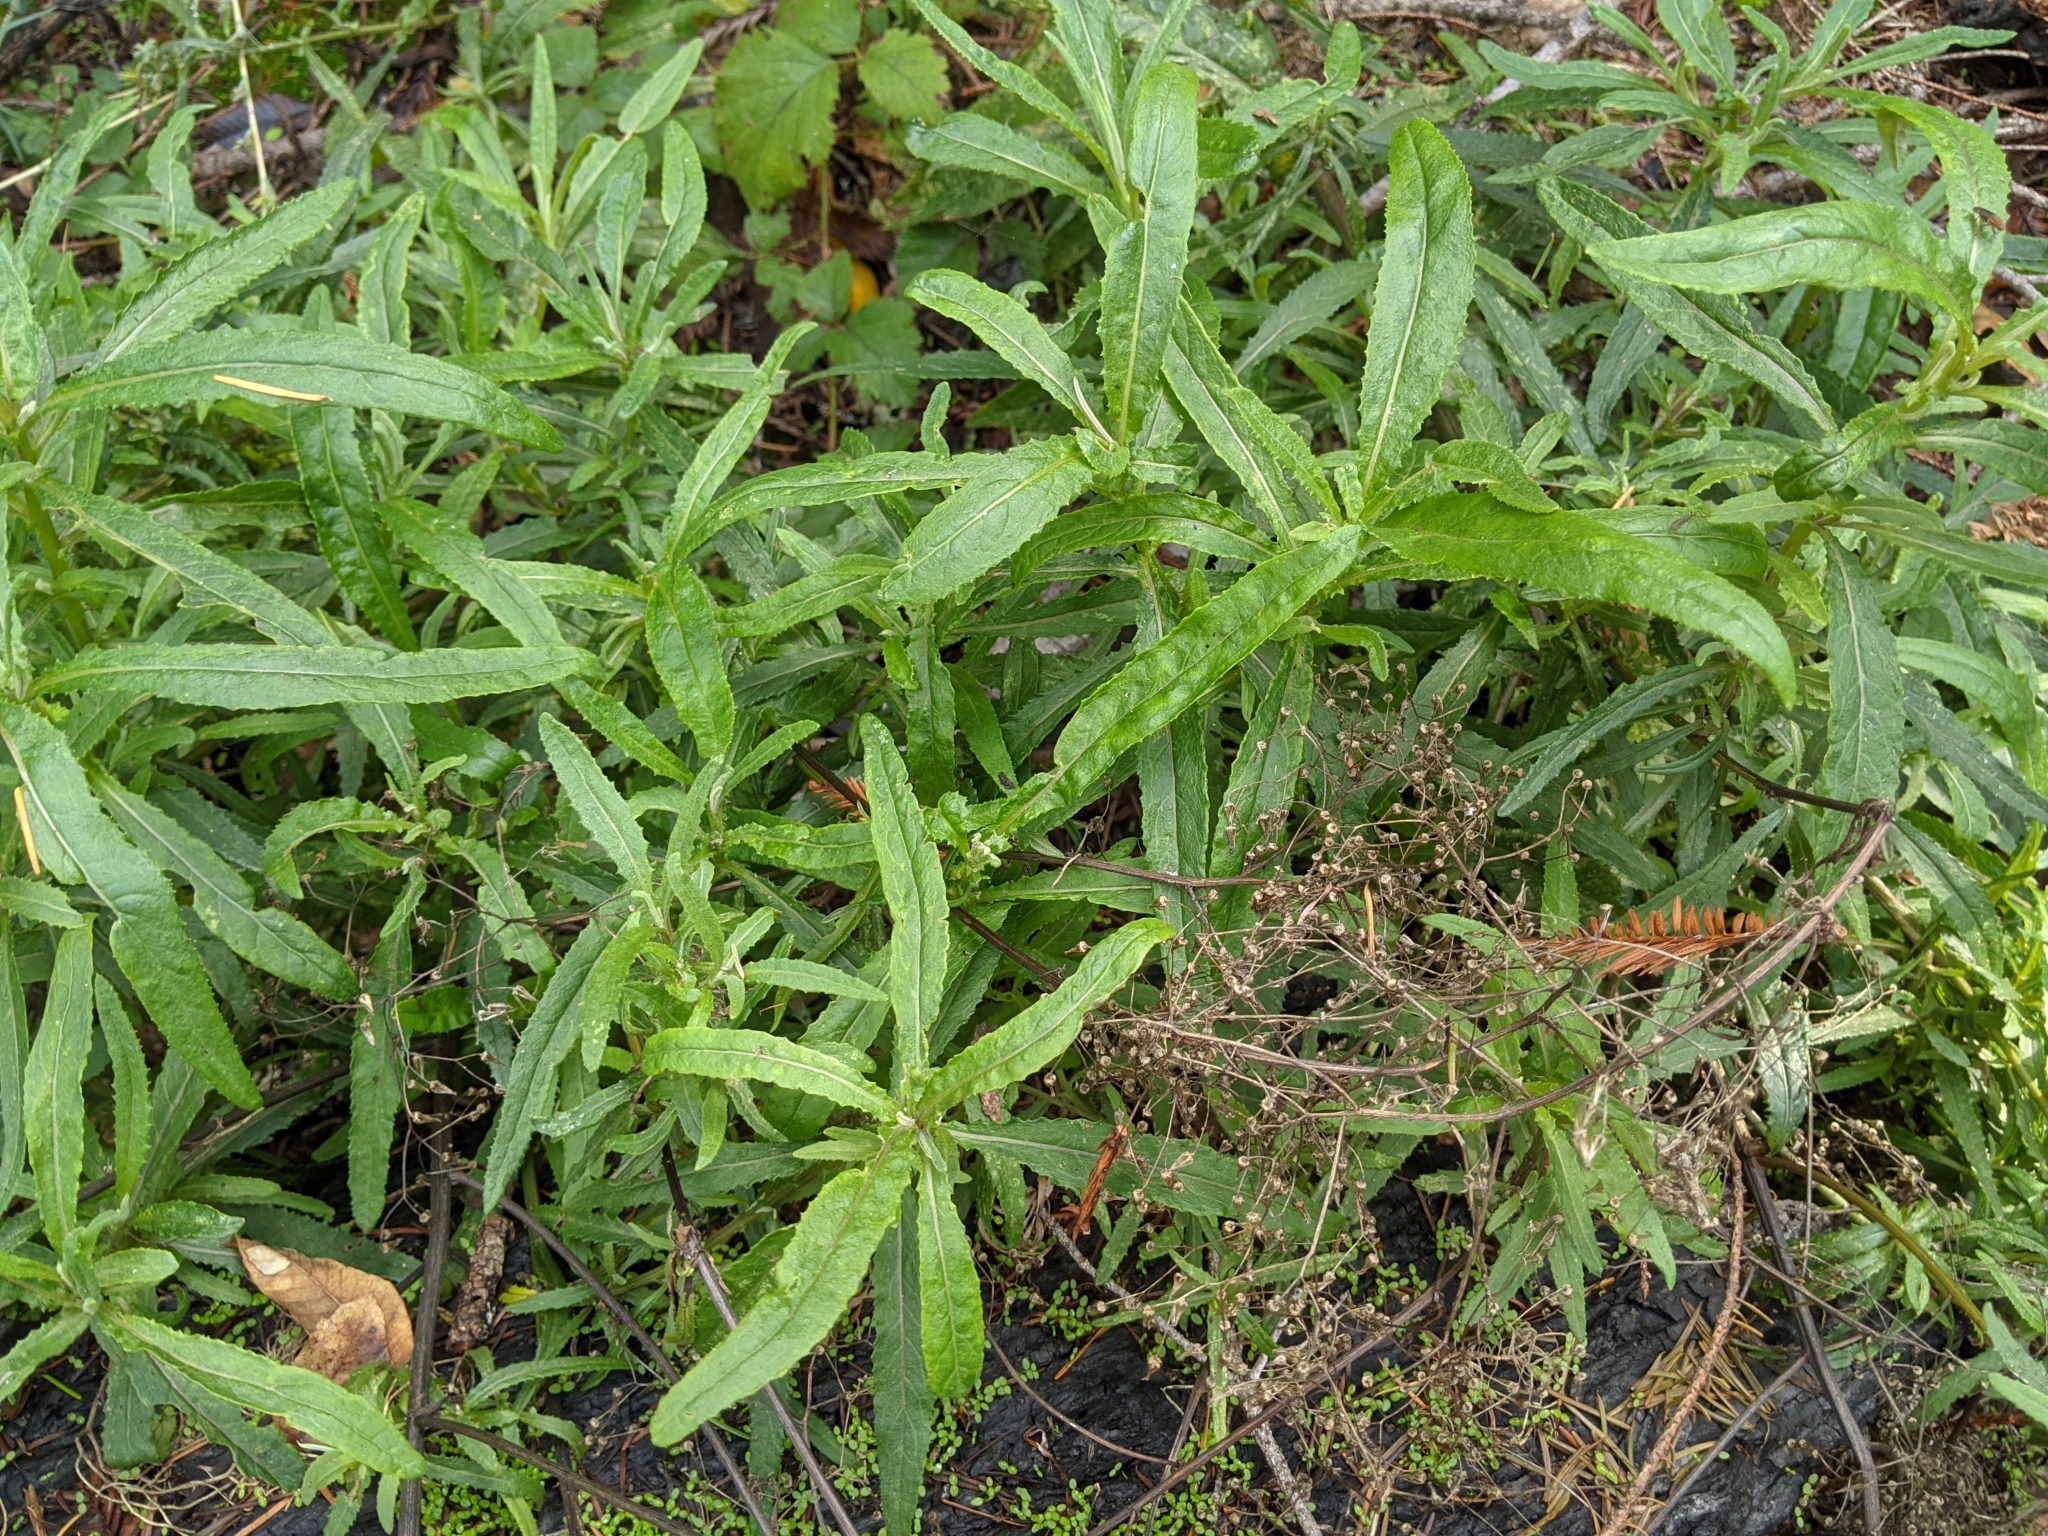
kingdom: Plantae
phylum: Tracheophyta
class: Magnoliopsida
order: Asterales
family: Asteraceae
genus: Senecio
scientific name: Senecio minimus
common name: Toothed fireweed
